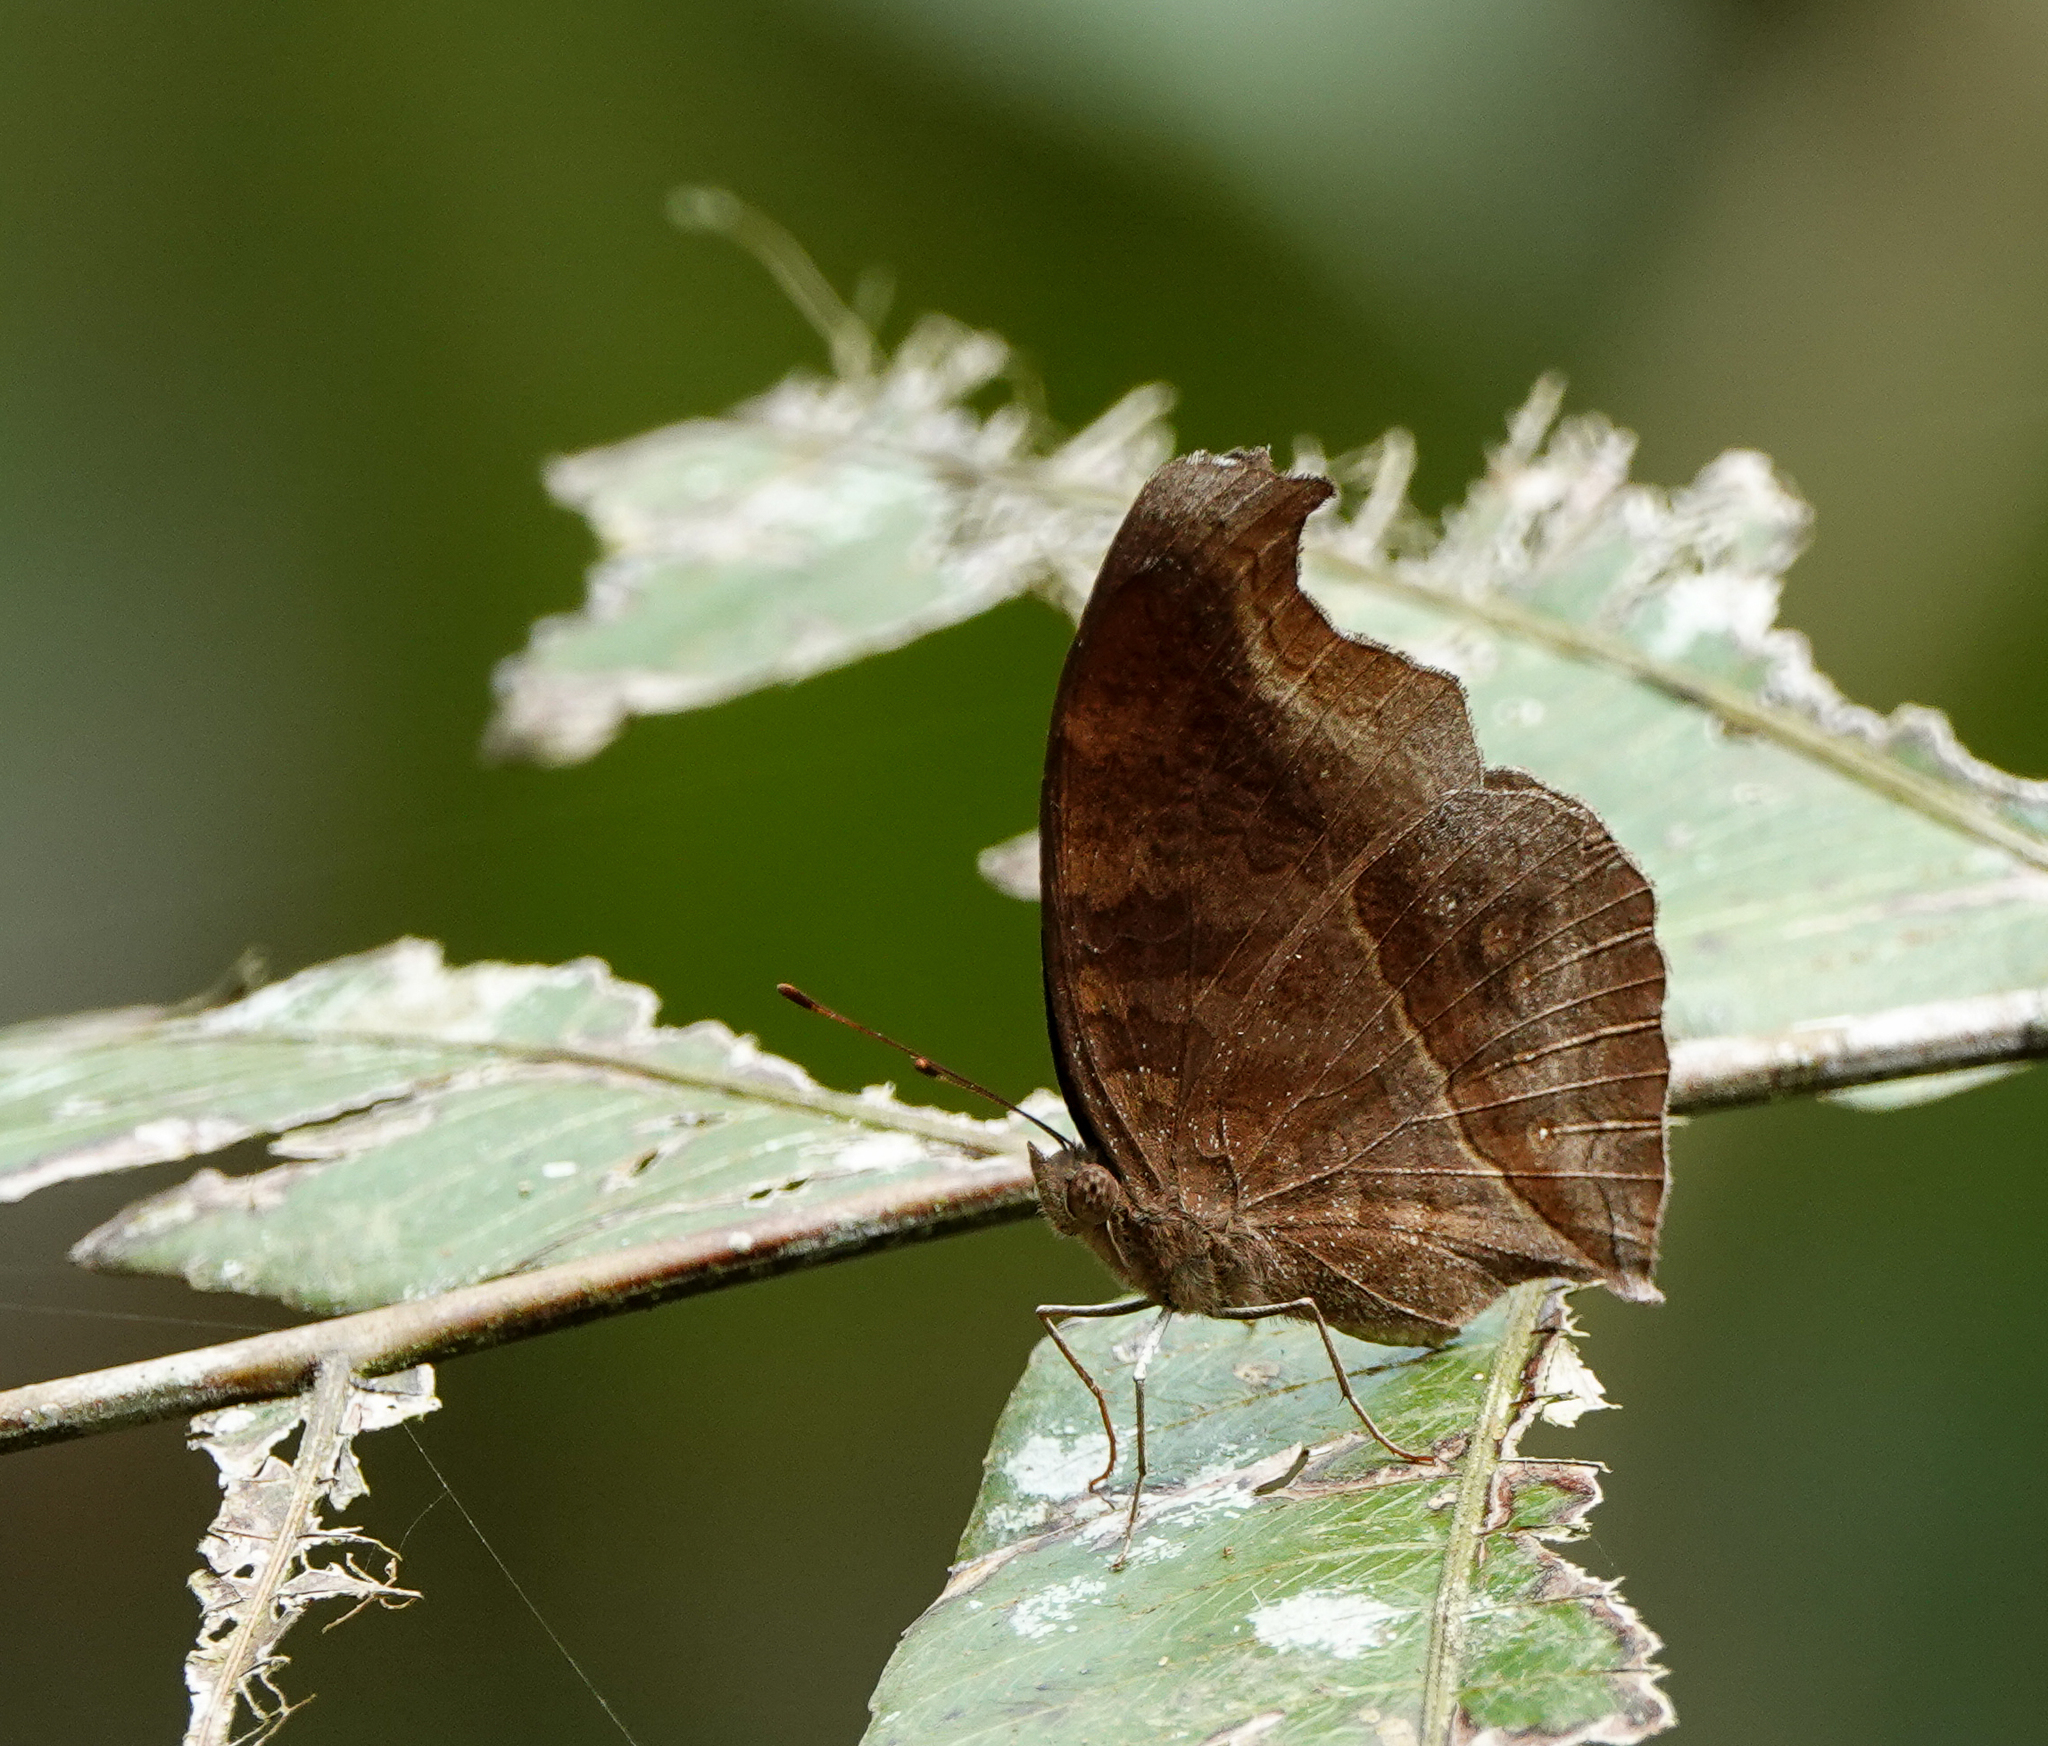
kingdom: Animalia
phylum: Arthropoda
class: Insecta
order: Lepidoptera
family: Nymphalidae
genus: Junonia
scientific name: Junonia iphita
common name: Chocolate pansy
